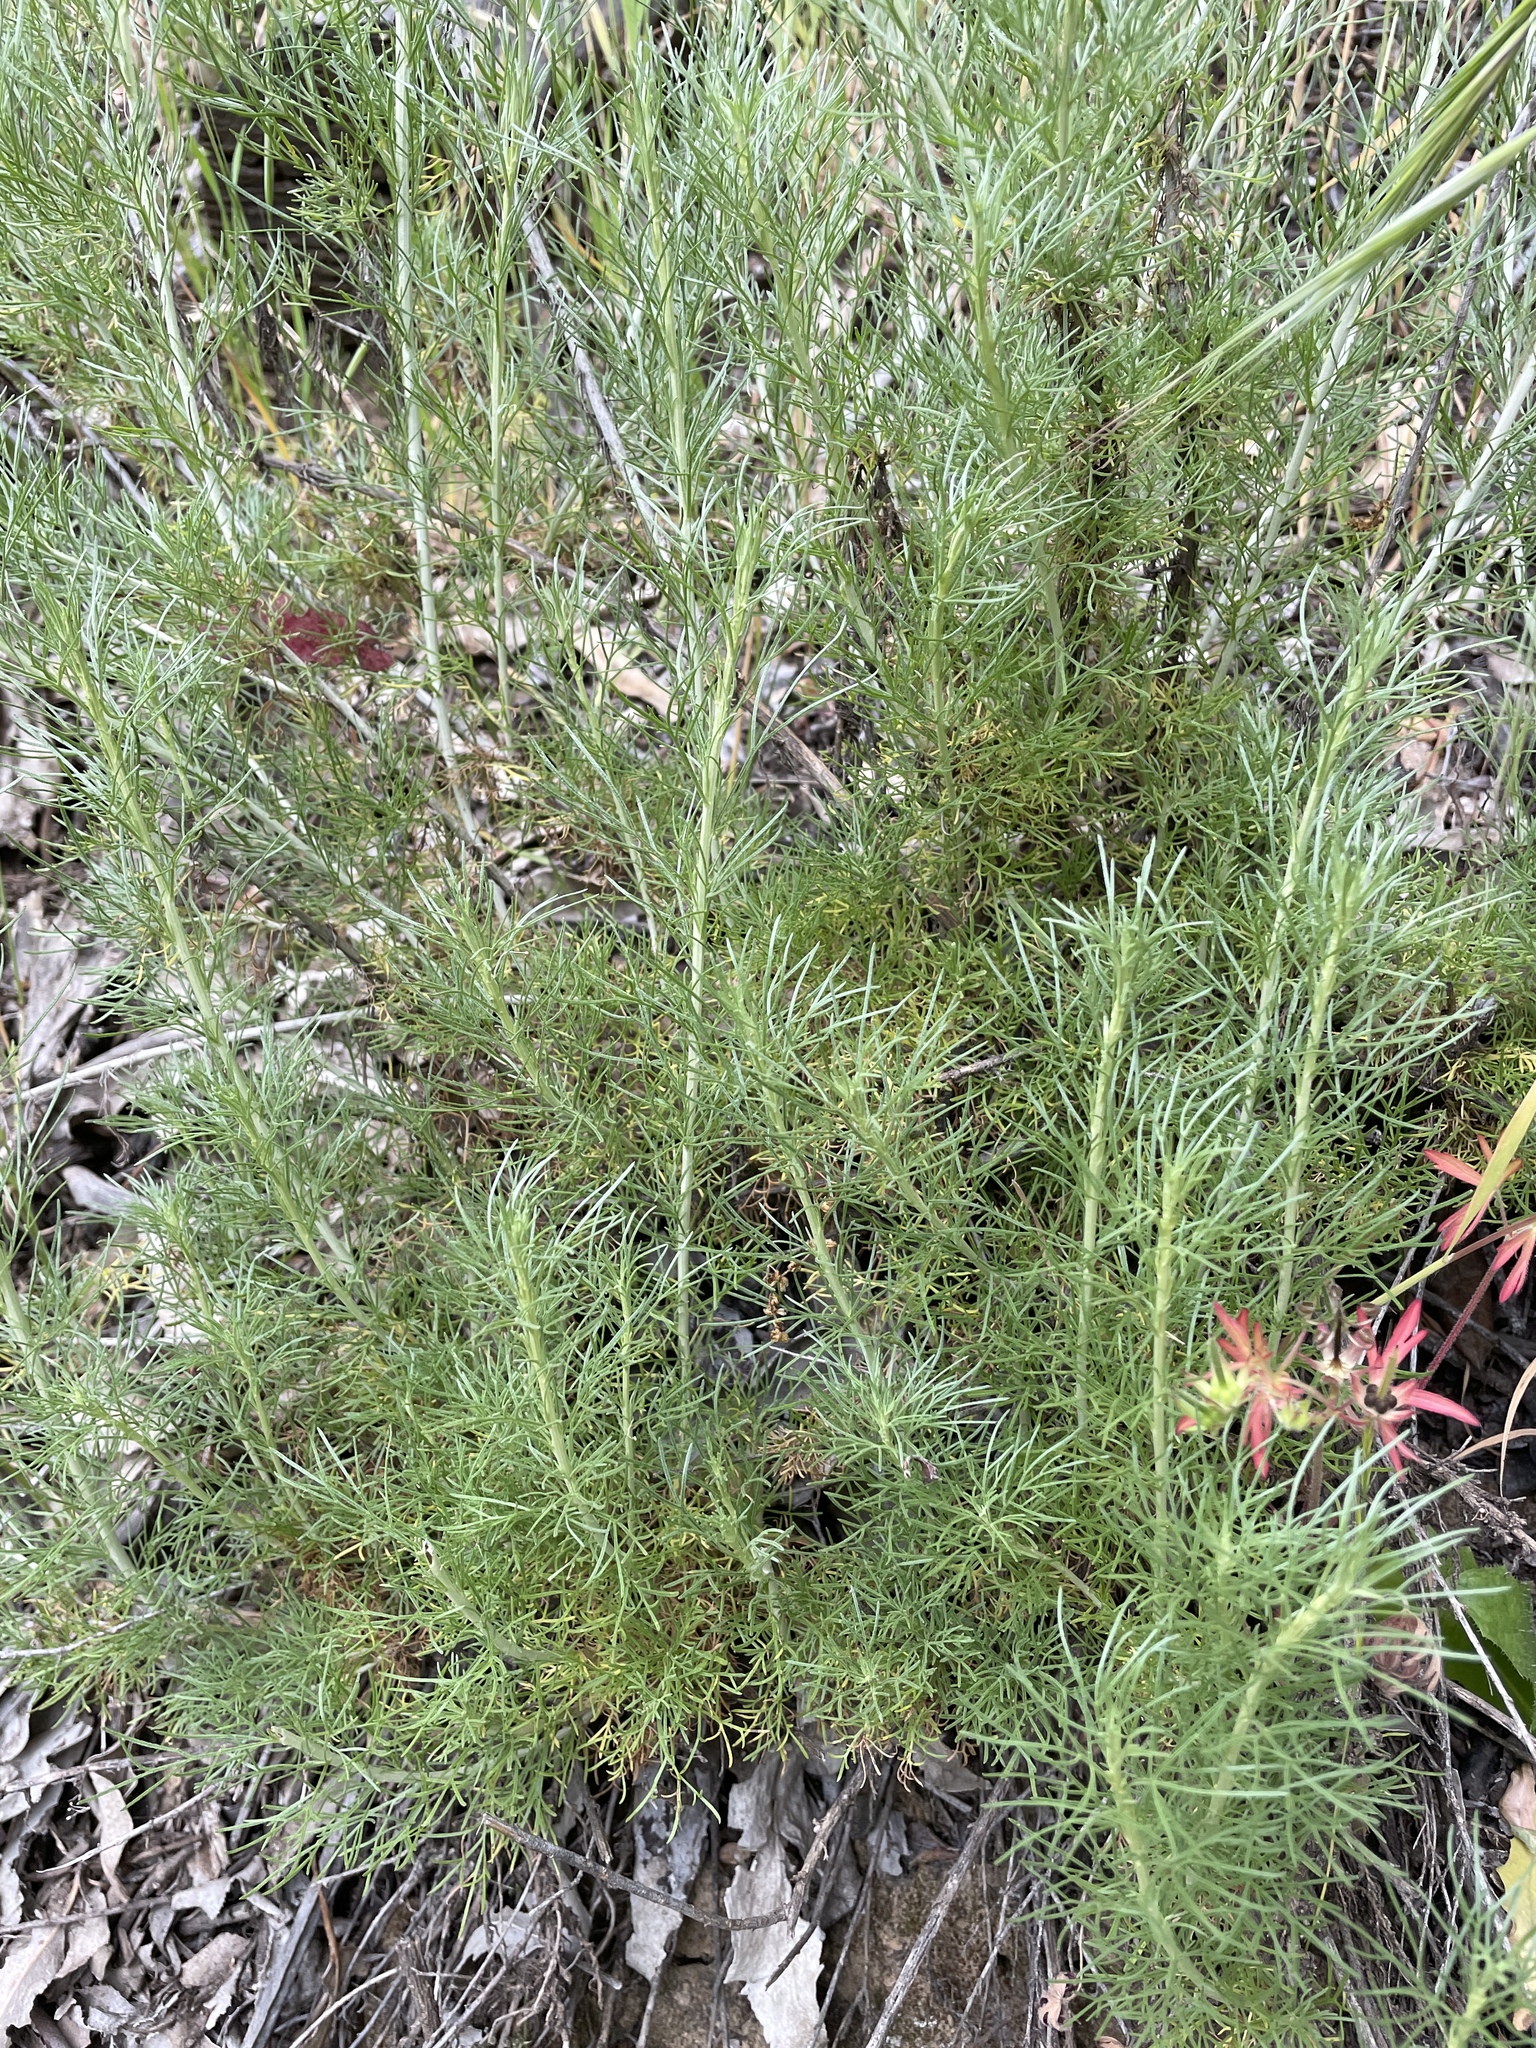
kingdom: Plantae
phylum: Tracheophyta
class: Magnoliopsida
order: Asterales
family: Asteraceae
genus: Artemisia
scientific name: Artemisia californica
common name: California sagebrush
